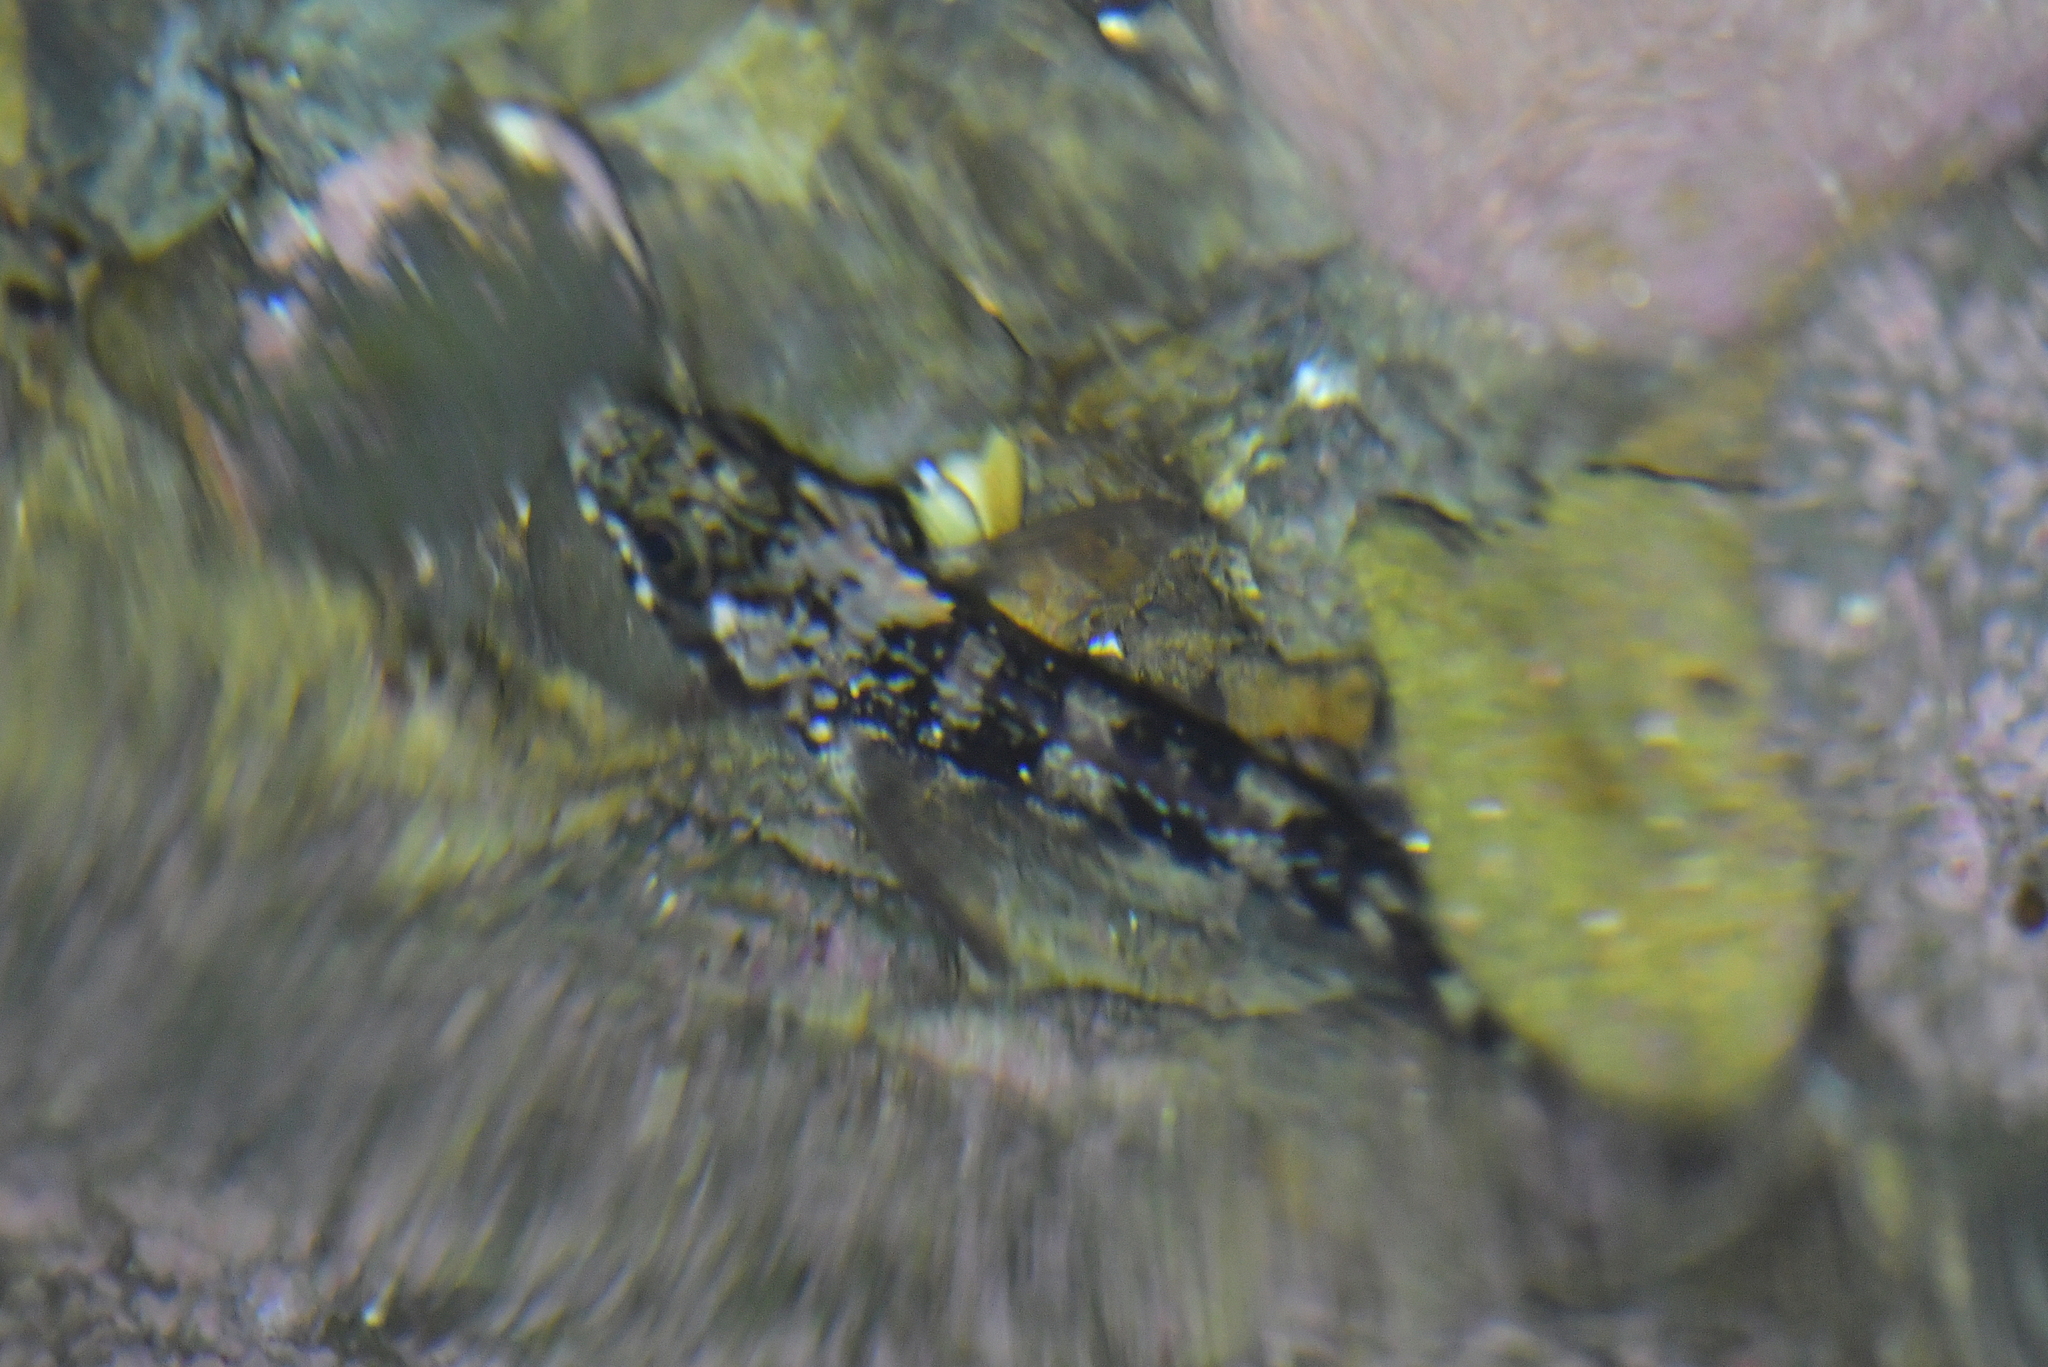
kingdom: Animalia
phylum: Chordata
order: Perciformes
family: Tripterygiidae
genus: Forsterygion
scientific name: Forsterygion varium
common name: Variable triplefin
